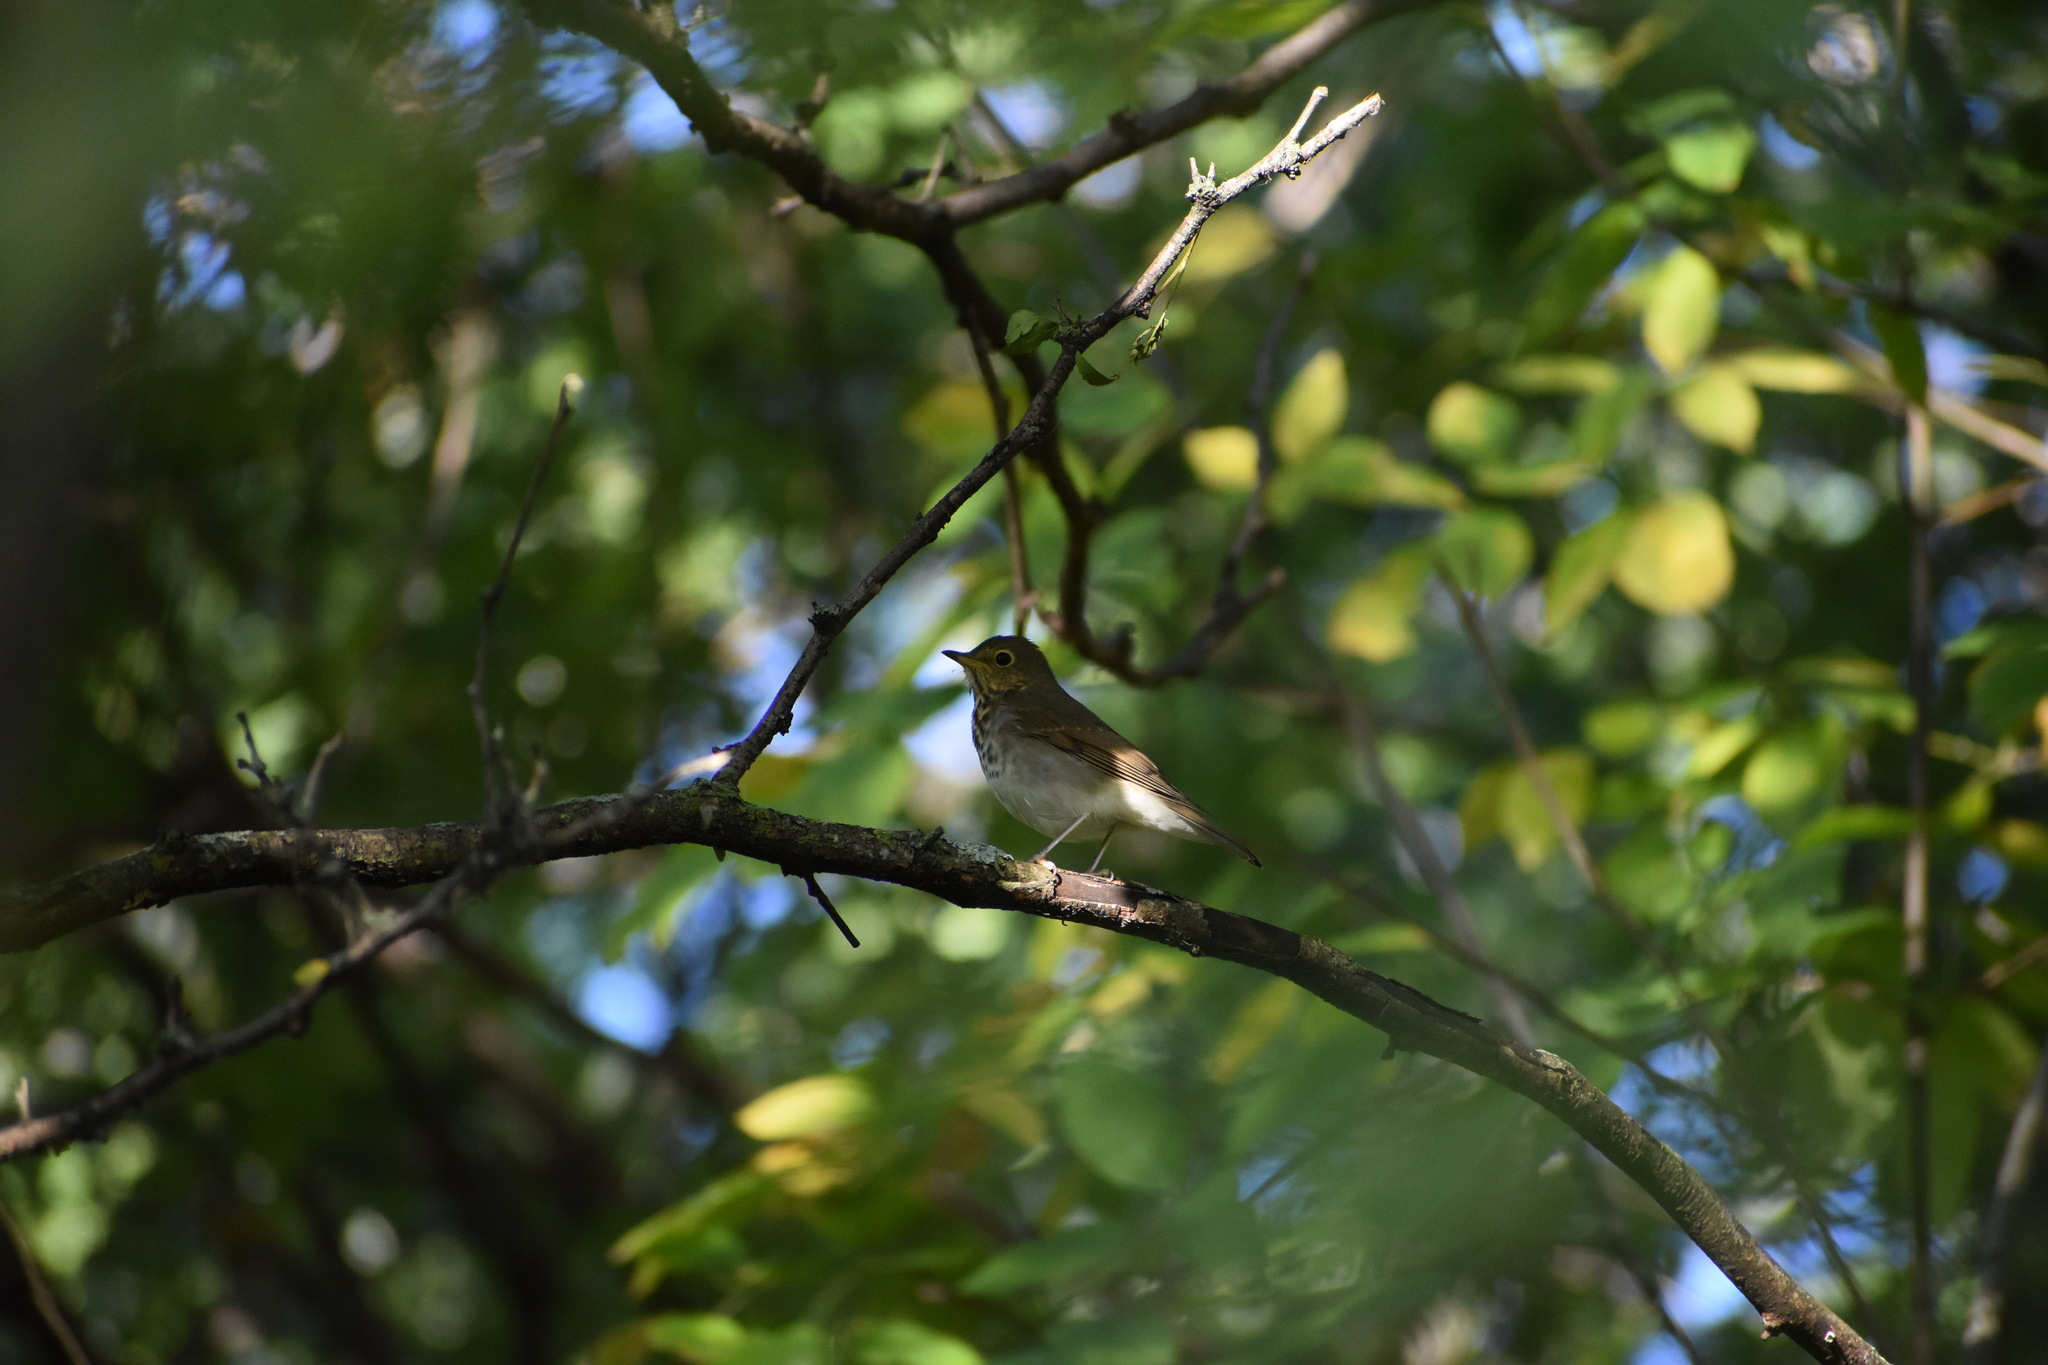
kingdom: Animalia
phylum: Chordata
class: Aves
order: Passeriformes
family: Turdidae
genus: Catharus
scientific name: Catharus ustulatus
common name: Swainson's thrush
